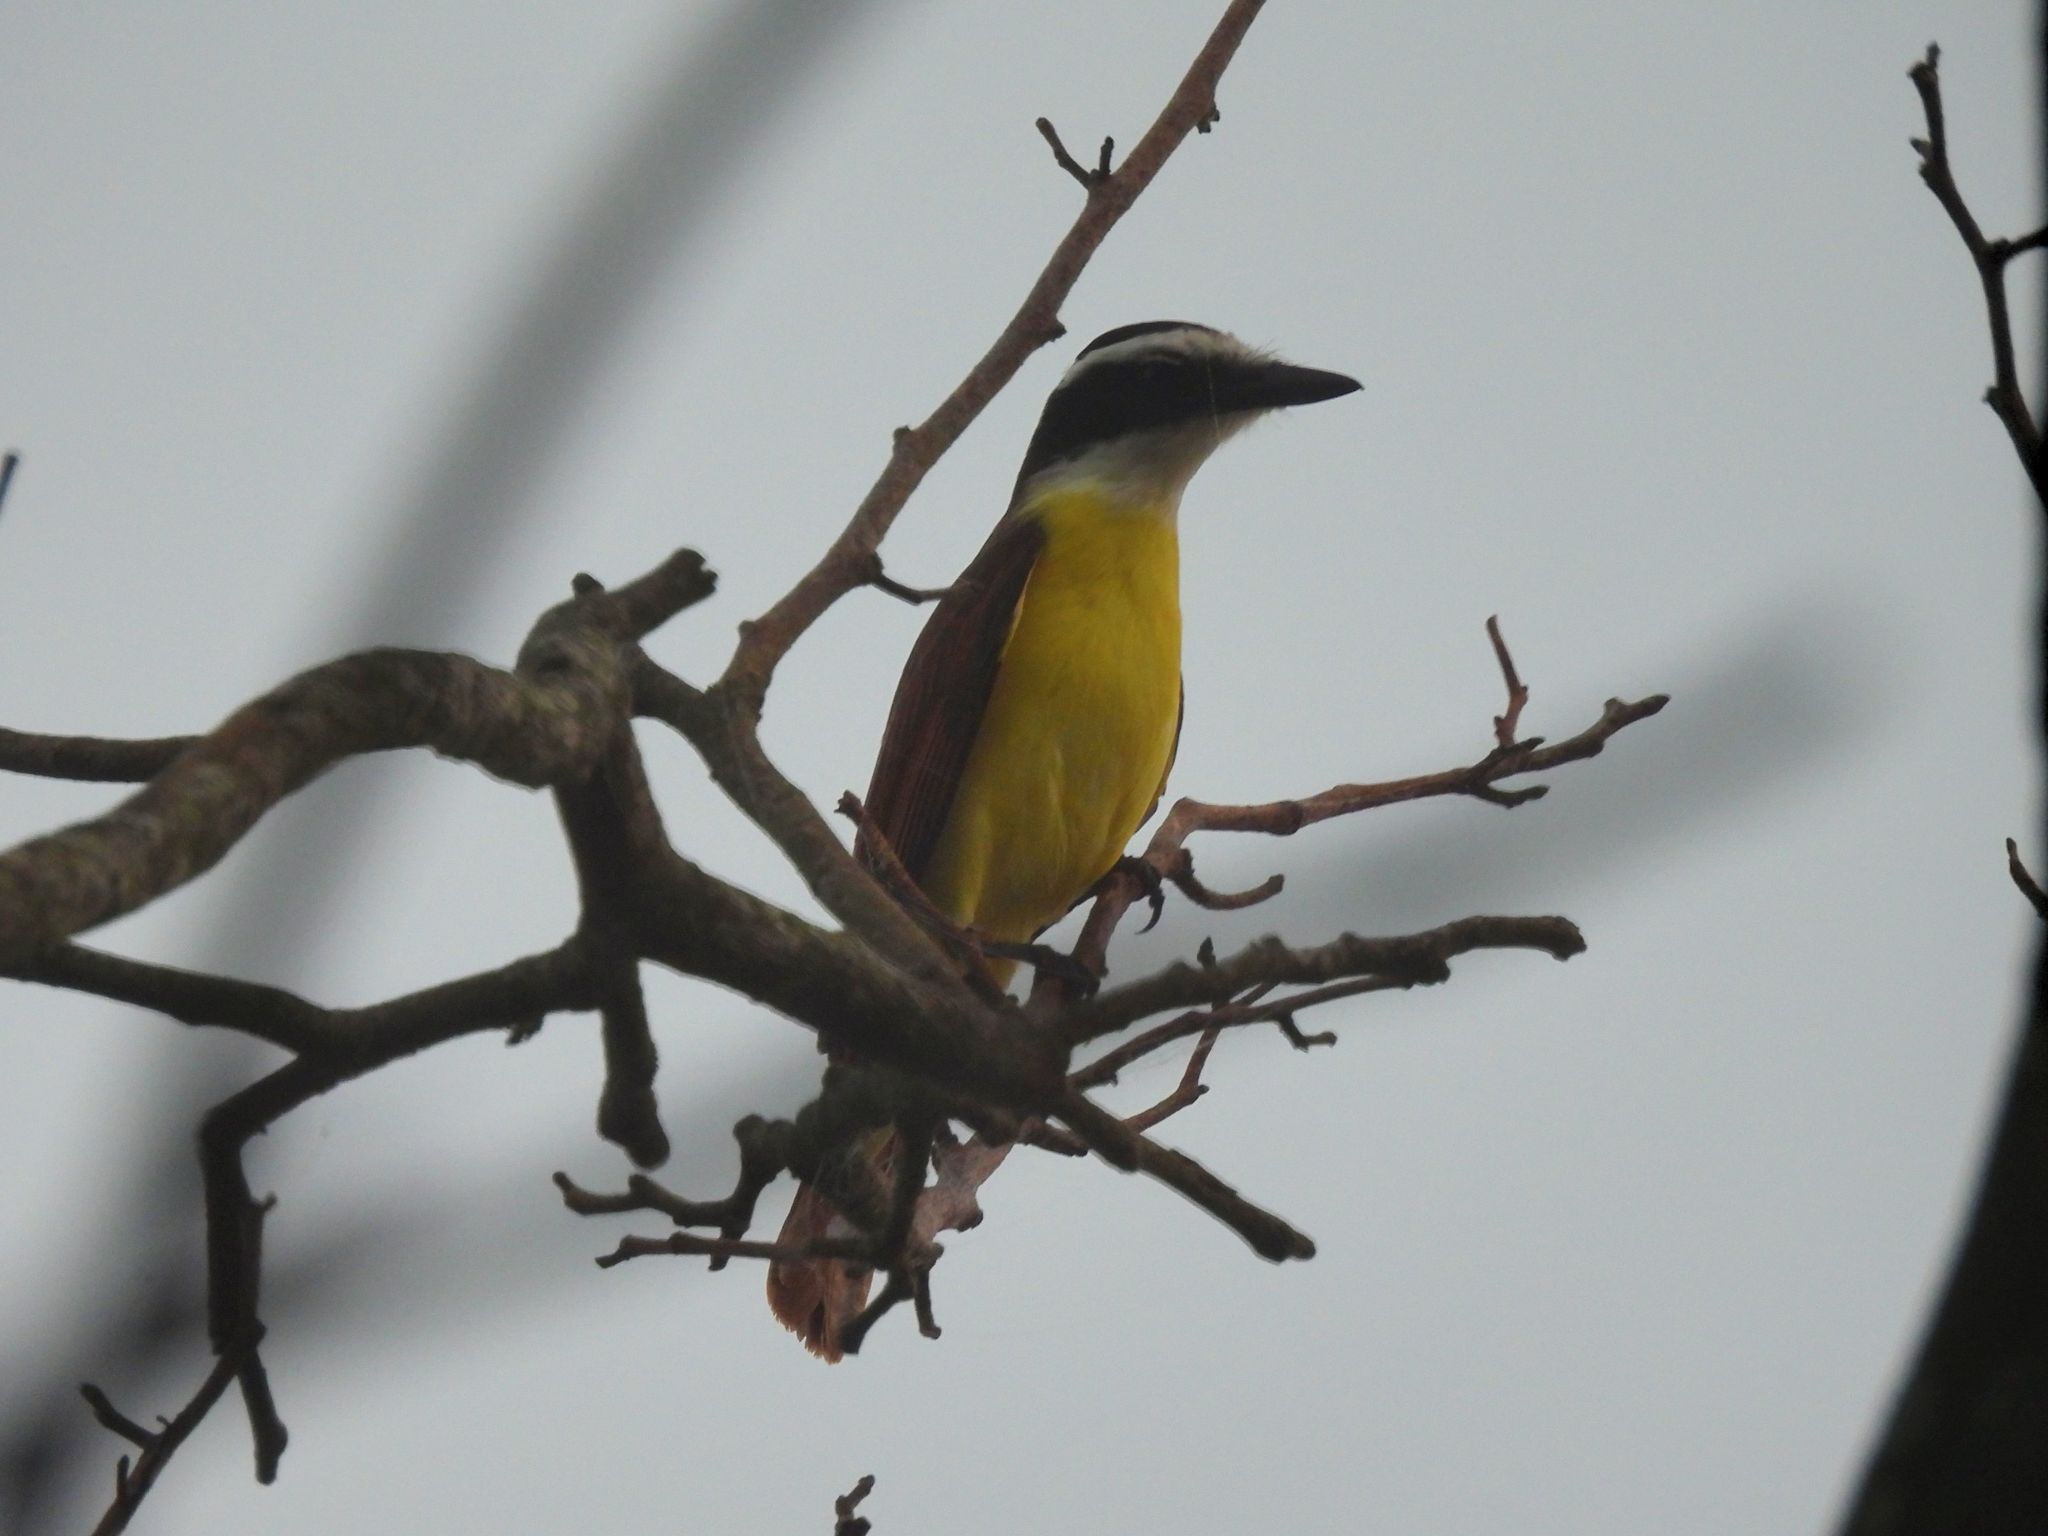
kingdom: Animalia
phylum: Chordata
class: Aves
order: Passeriformes
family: Tyrannidae
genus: Pitangus
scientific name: Pitangus sulphuratus
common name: Great kiskadee
